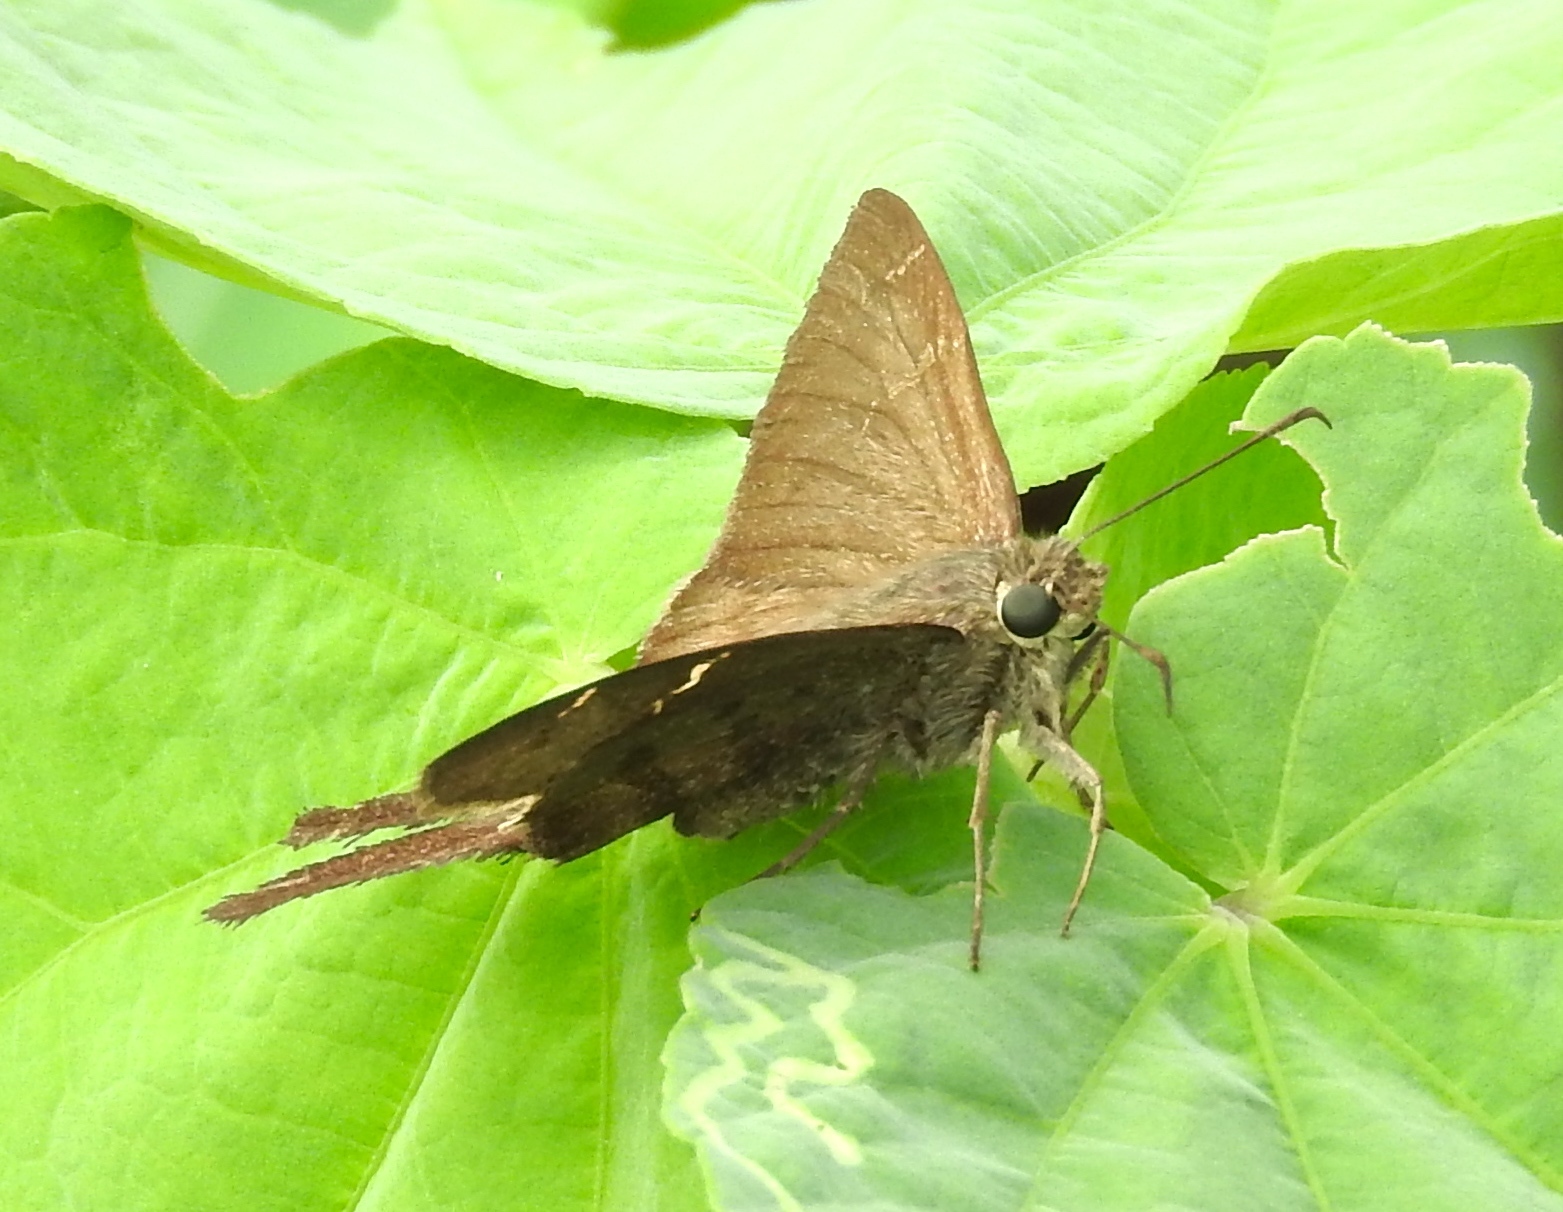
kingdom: Animalia
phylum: Arthropoda
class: Insecta
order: Lepidoptera
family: Hesperiidae
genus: Urbanus
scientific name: Urbanus procne
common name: Brown longtail
